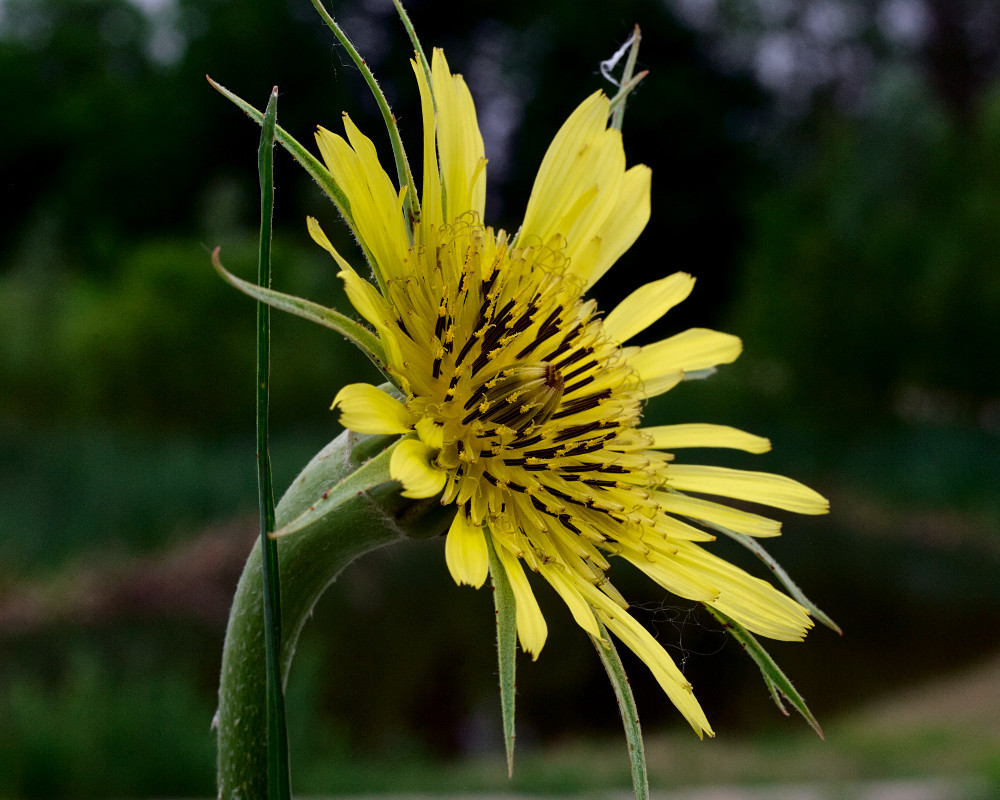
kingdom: Plantae
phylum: Tracheophyta
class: Magnoliopsida
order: Asterales
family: Asteraceae
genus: Tragopogon
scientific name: Tragopogon dubius
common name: Yellow salsify
